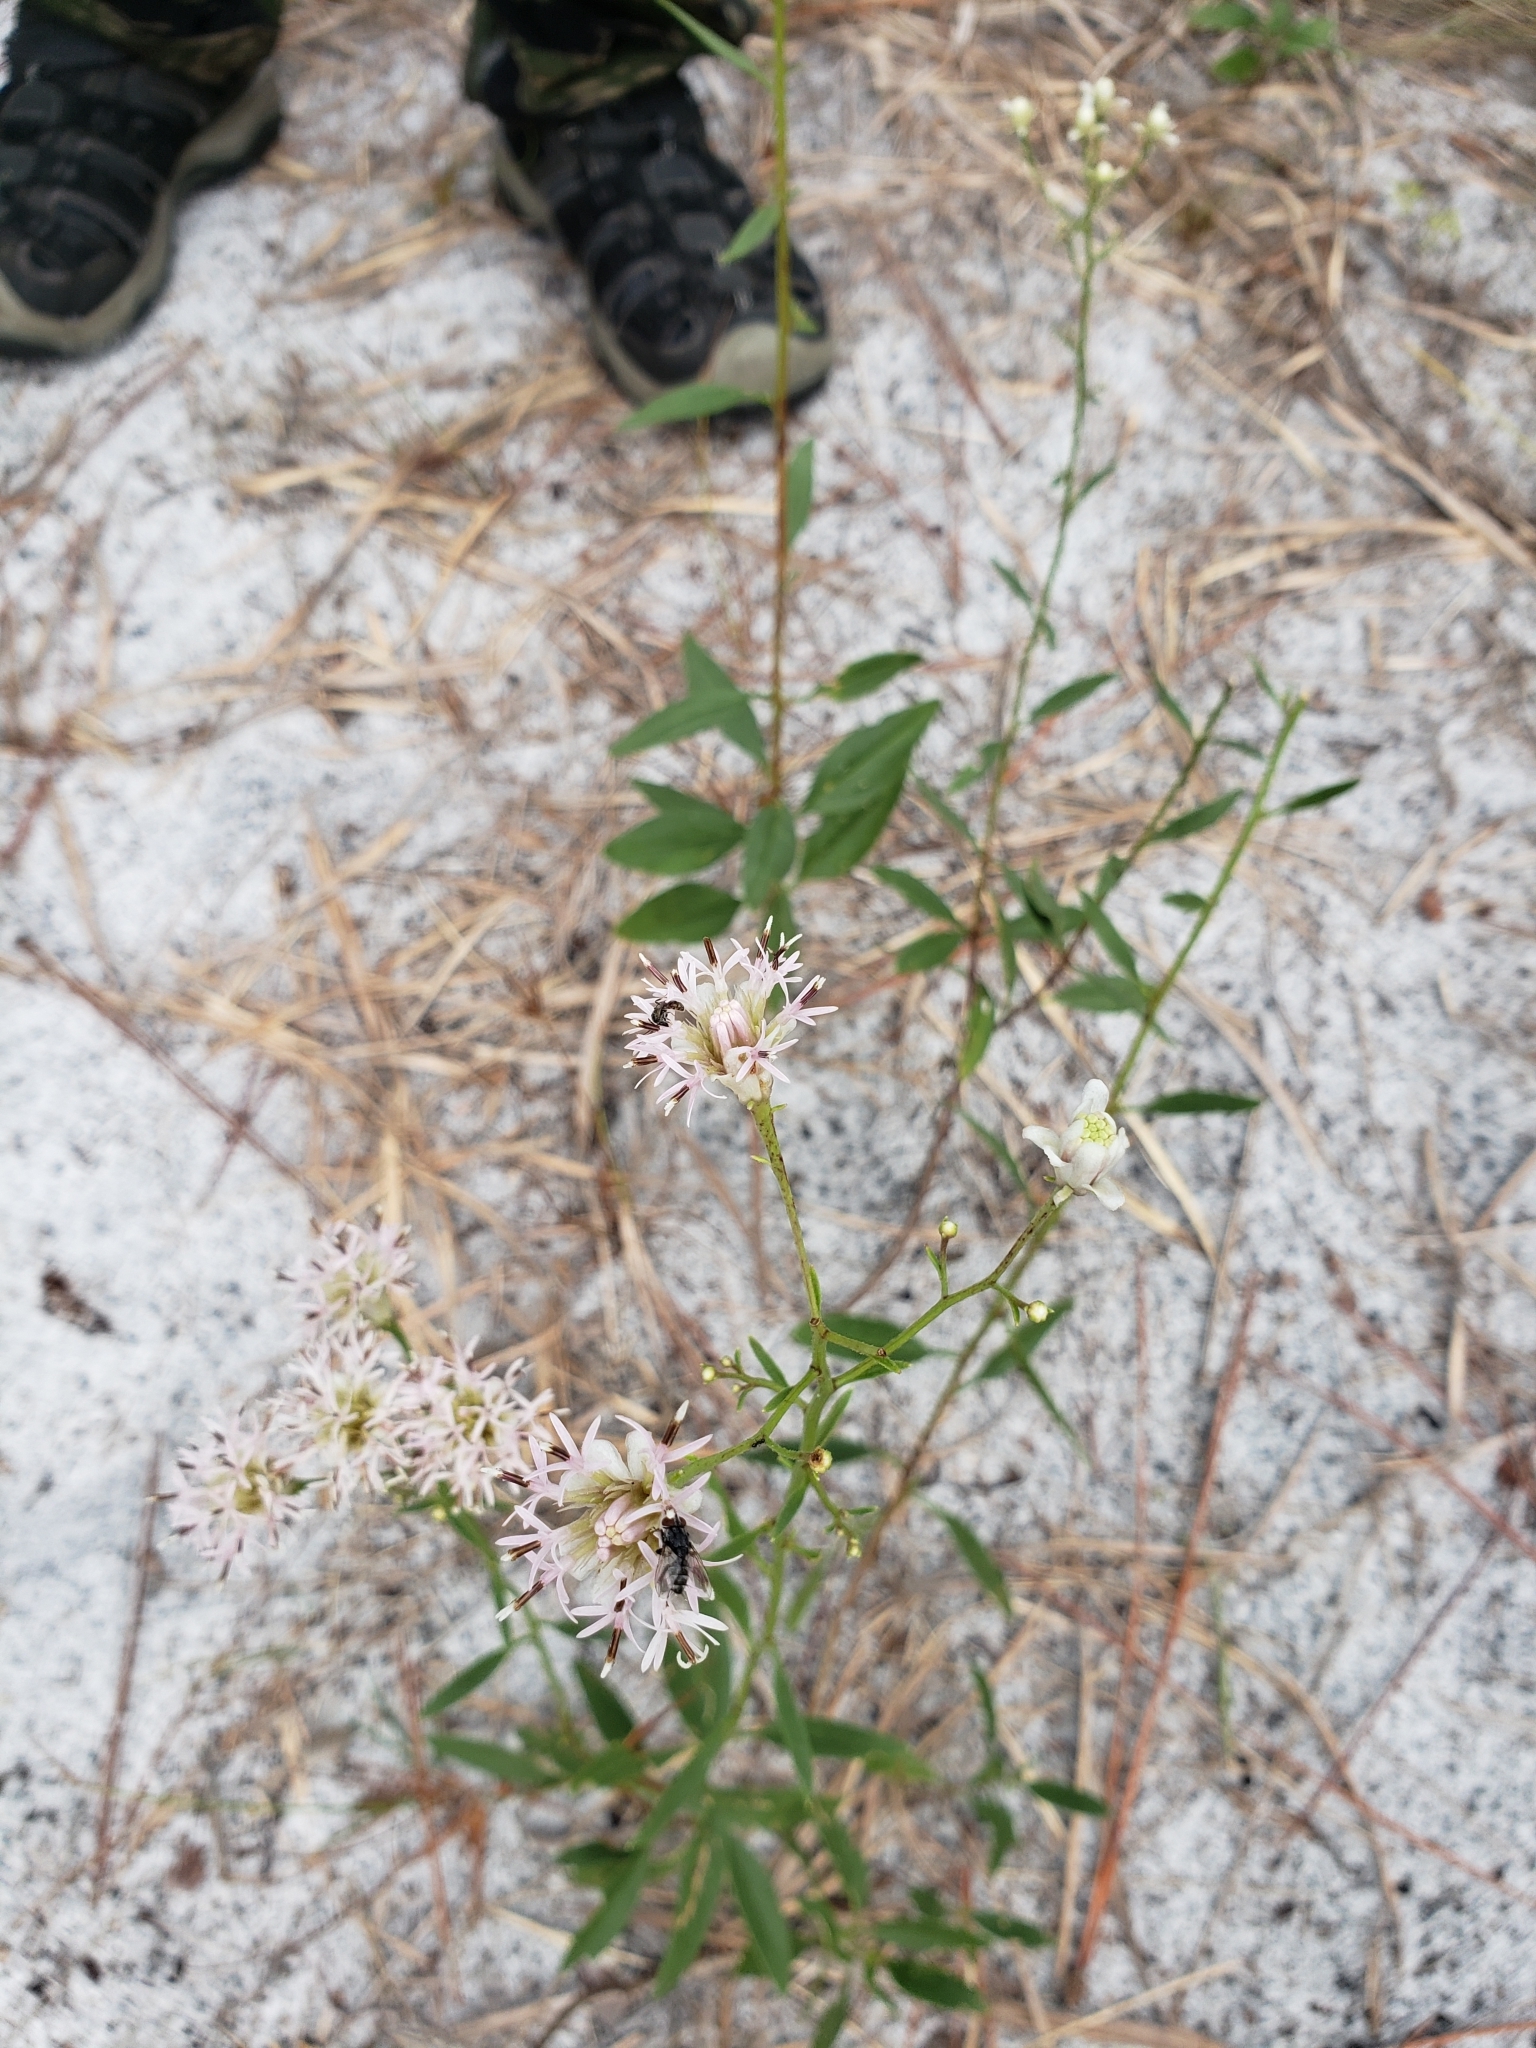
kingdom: Plantae
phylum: Tracheophyta
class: Magnoliopsida
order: Asterales
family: Asteraceae
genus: Palafoxia
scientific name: Palafoxia integrifolia
